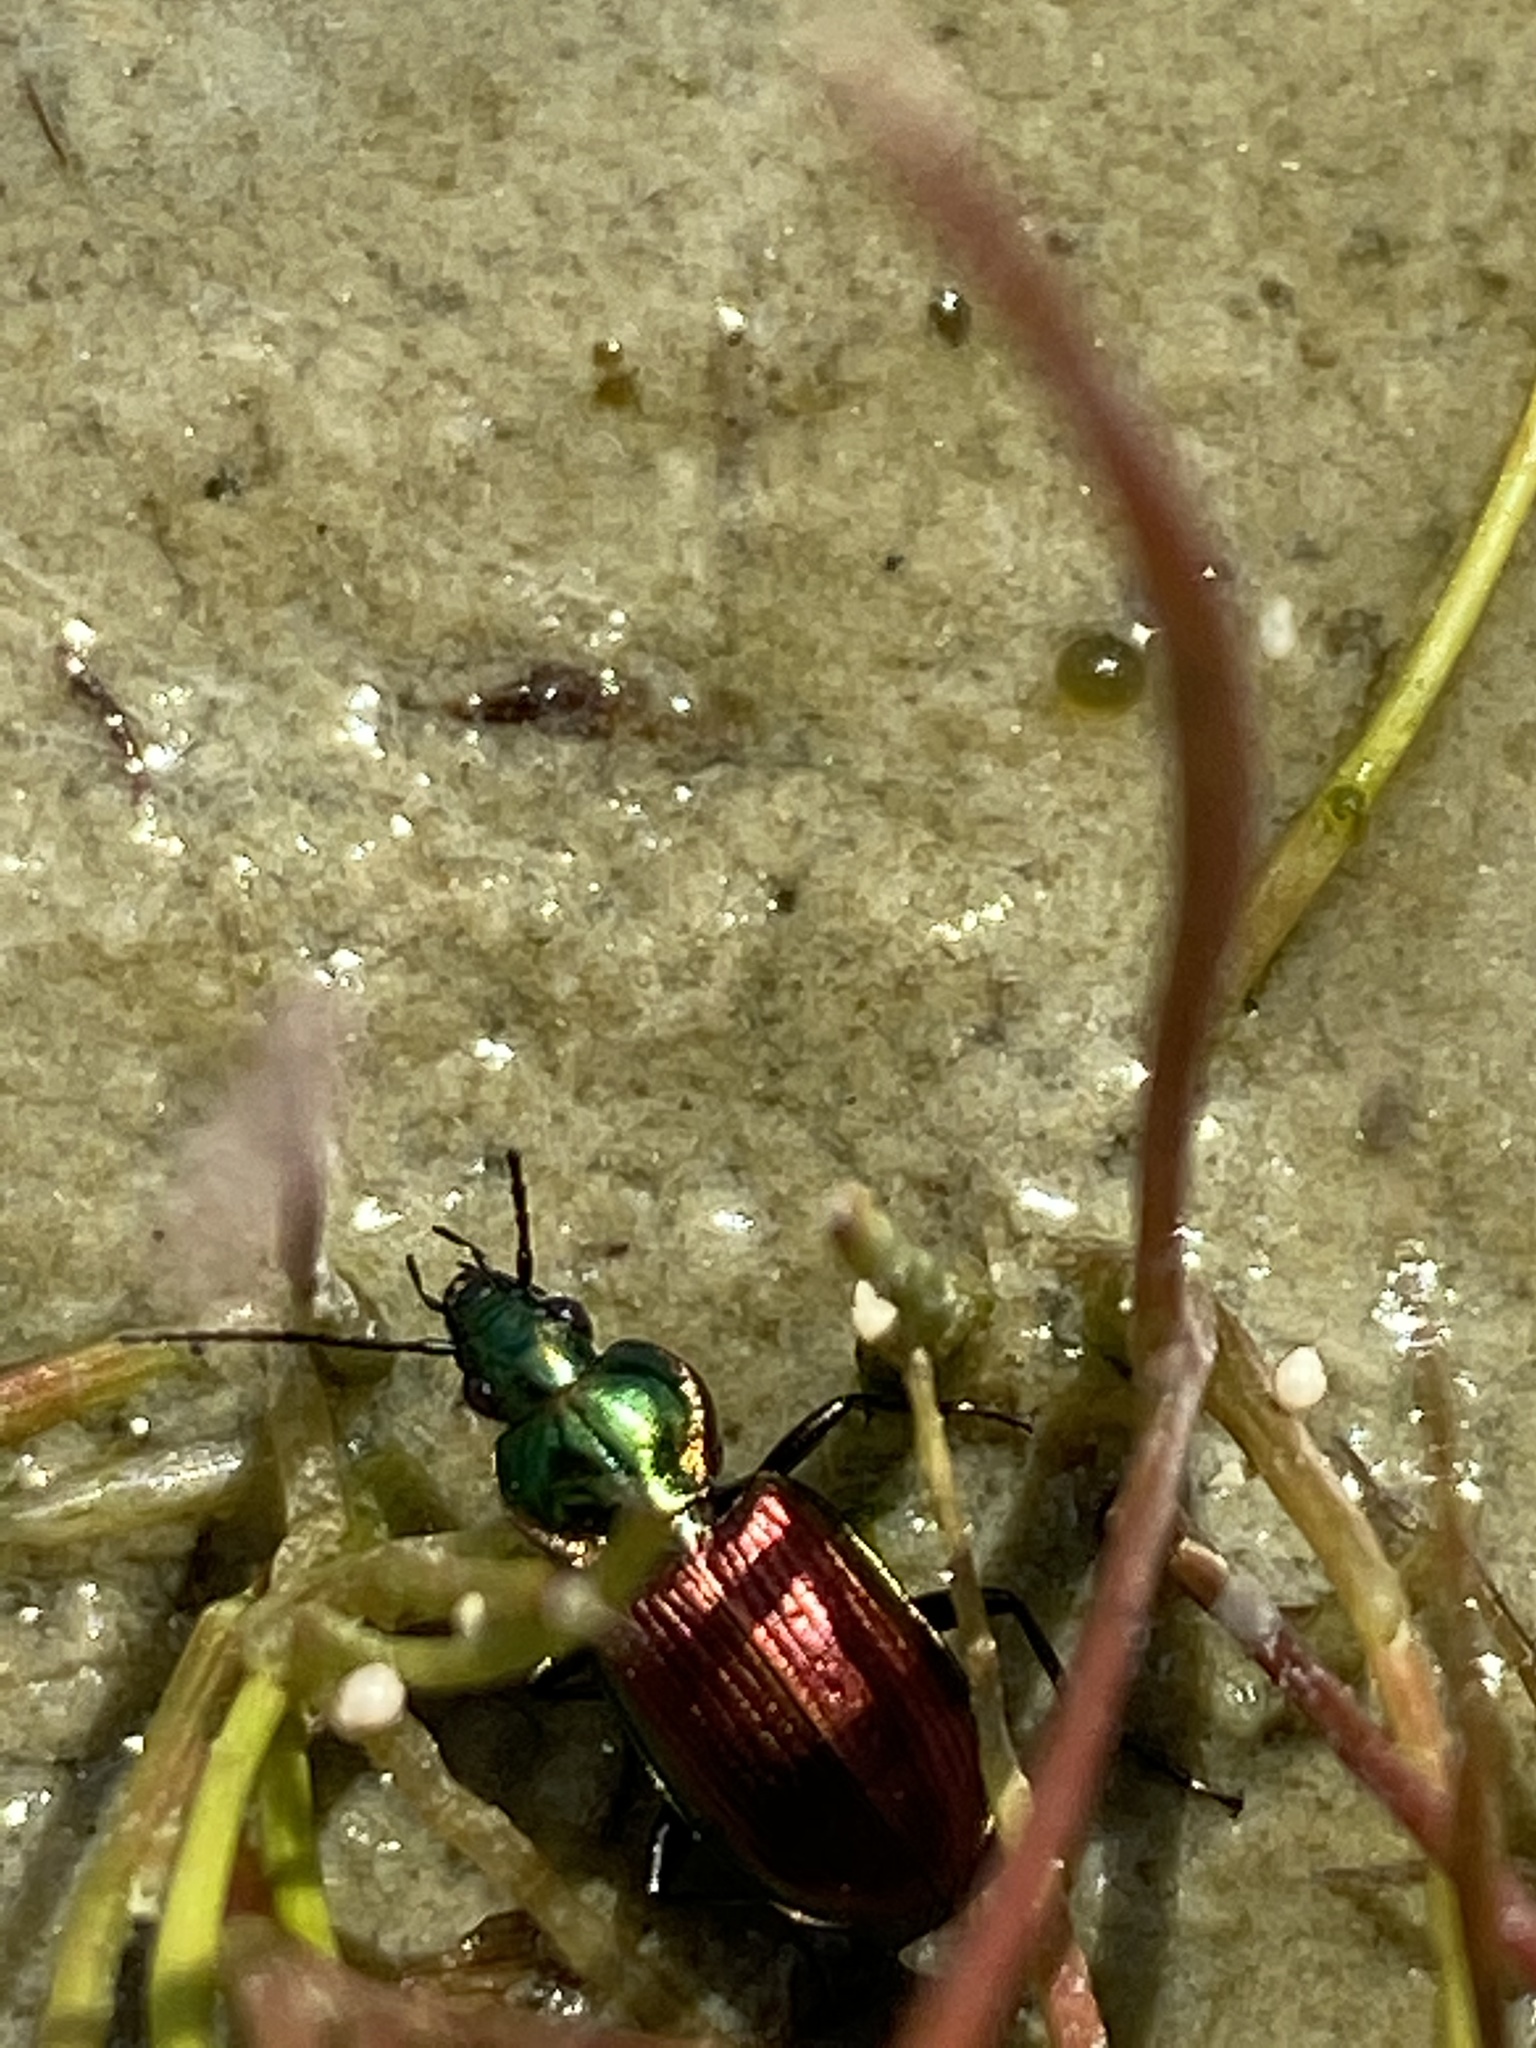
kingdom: Animalia
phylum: Arthropoda
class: Insecta
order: Coleoptera
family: Carabidae
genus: Agonum
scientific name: Agonum sexpunctatum
